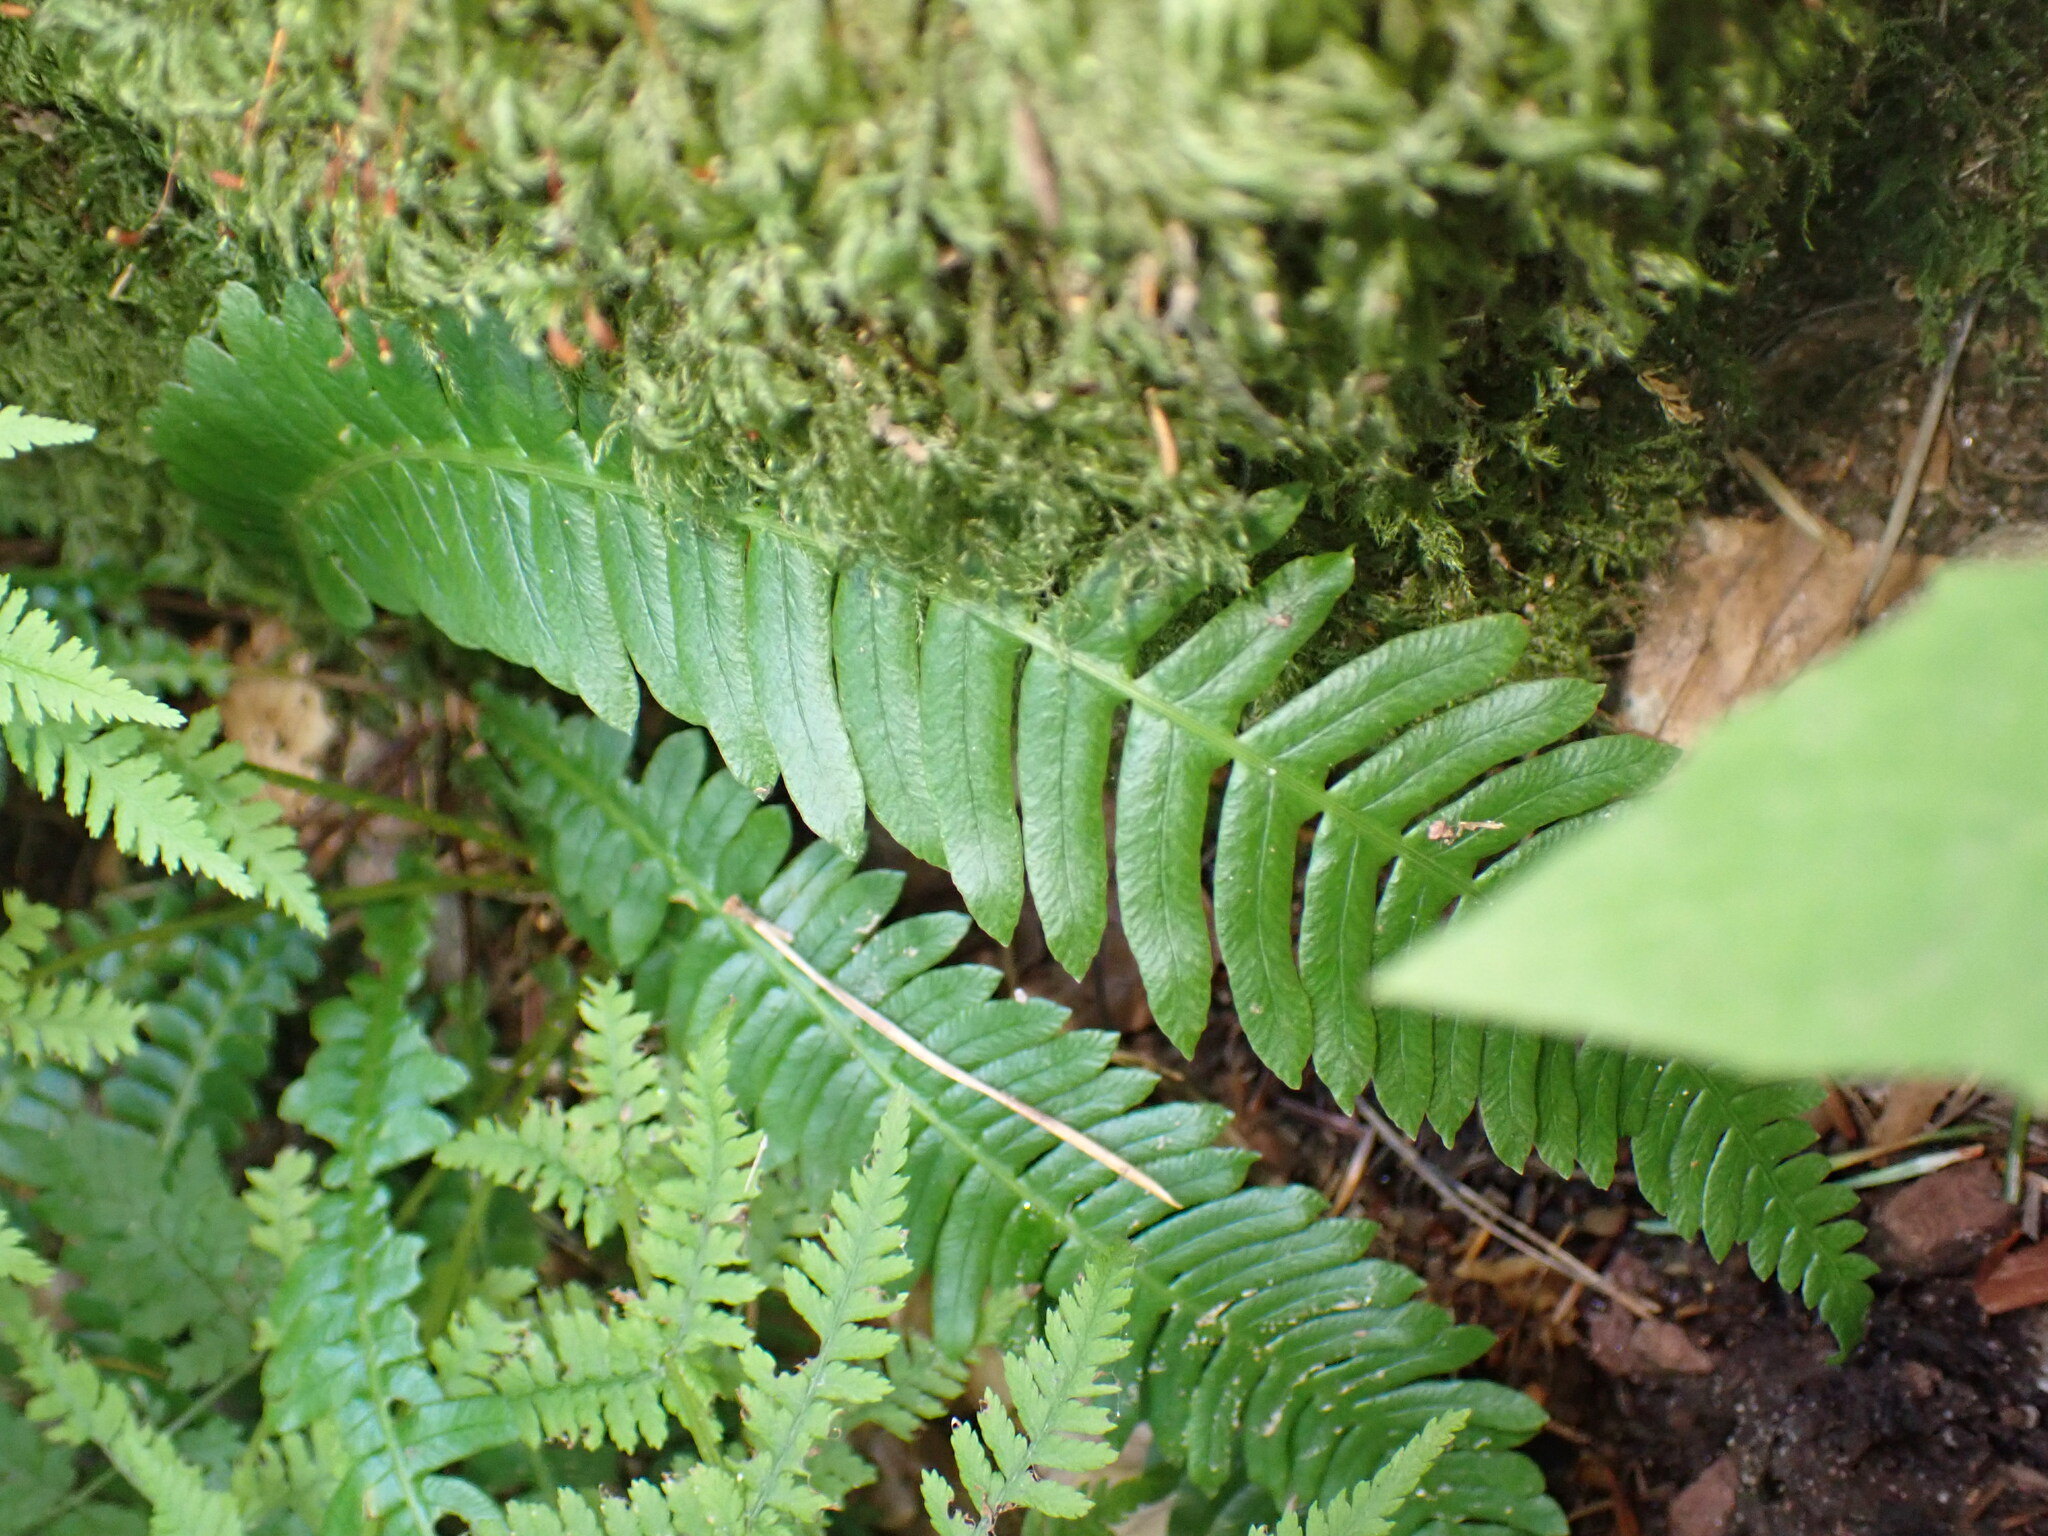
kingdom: Plantae
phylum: Tracheophyta
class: Polypodiopsida
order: Polypodiales
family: Blechnaceae
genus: Struthiopteris
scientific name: Struthiopteris spicant
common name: Deer fern
